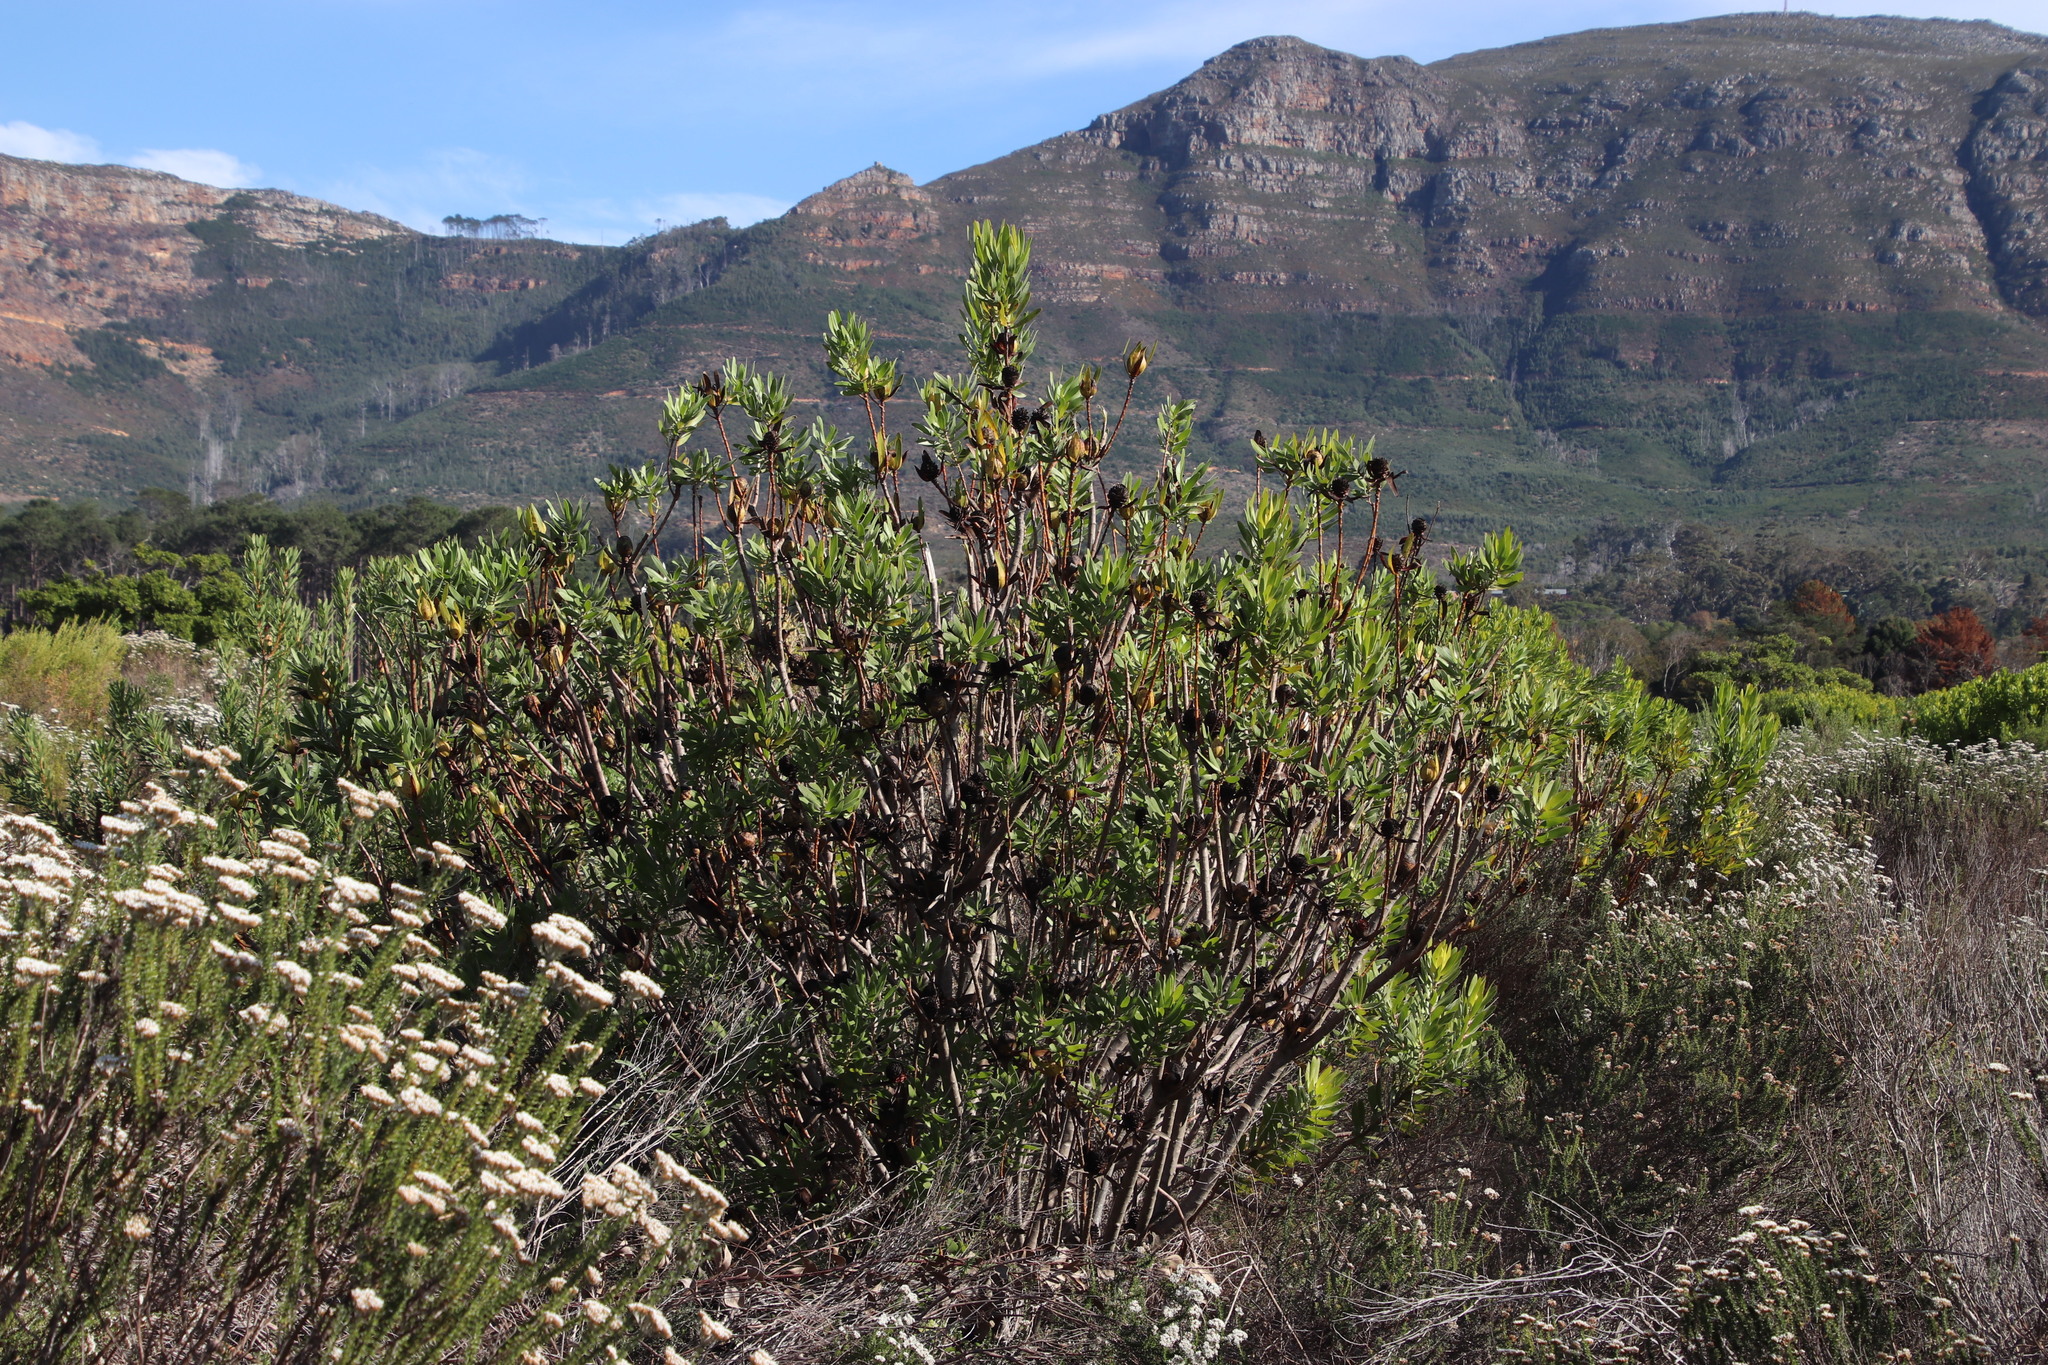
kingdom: Plantae
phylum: Tracheophyta
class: Magnoliopsida
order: Proteales
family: Proteaceae
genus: Leucadendron
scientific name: Leucadendron laureolum
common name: Golden sunshinebush
